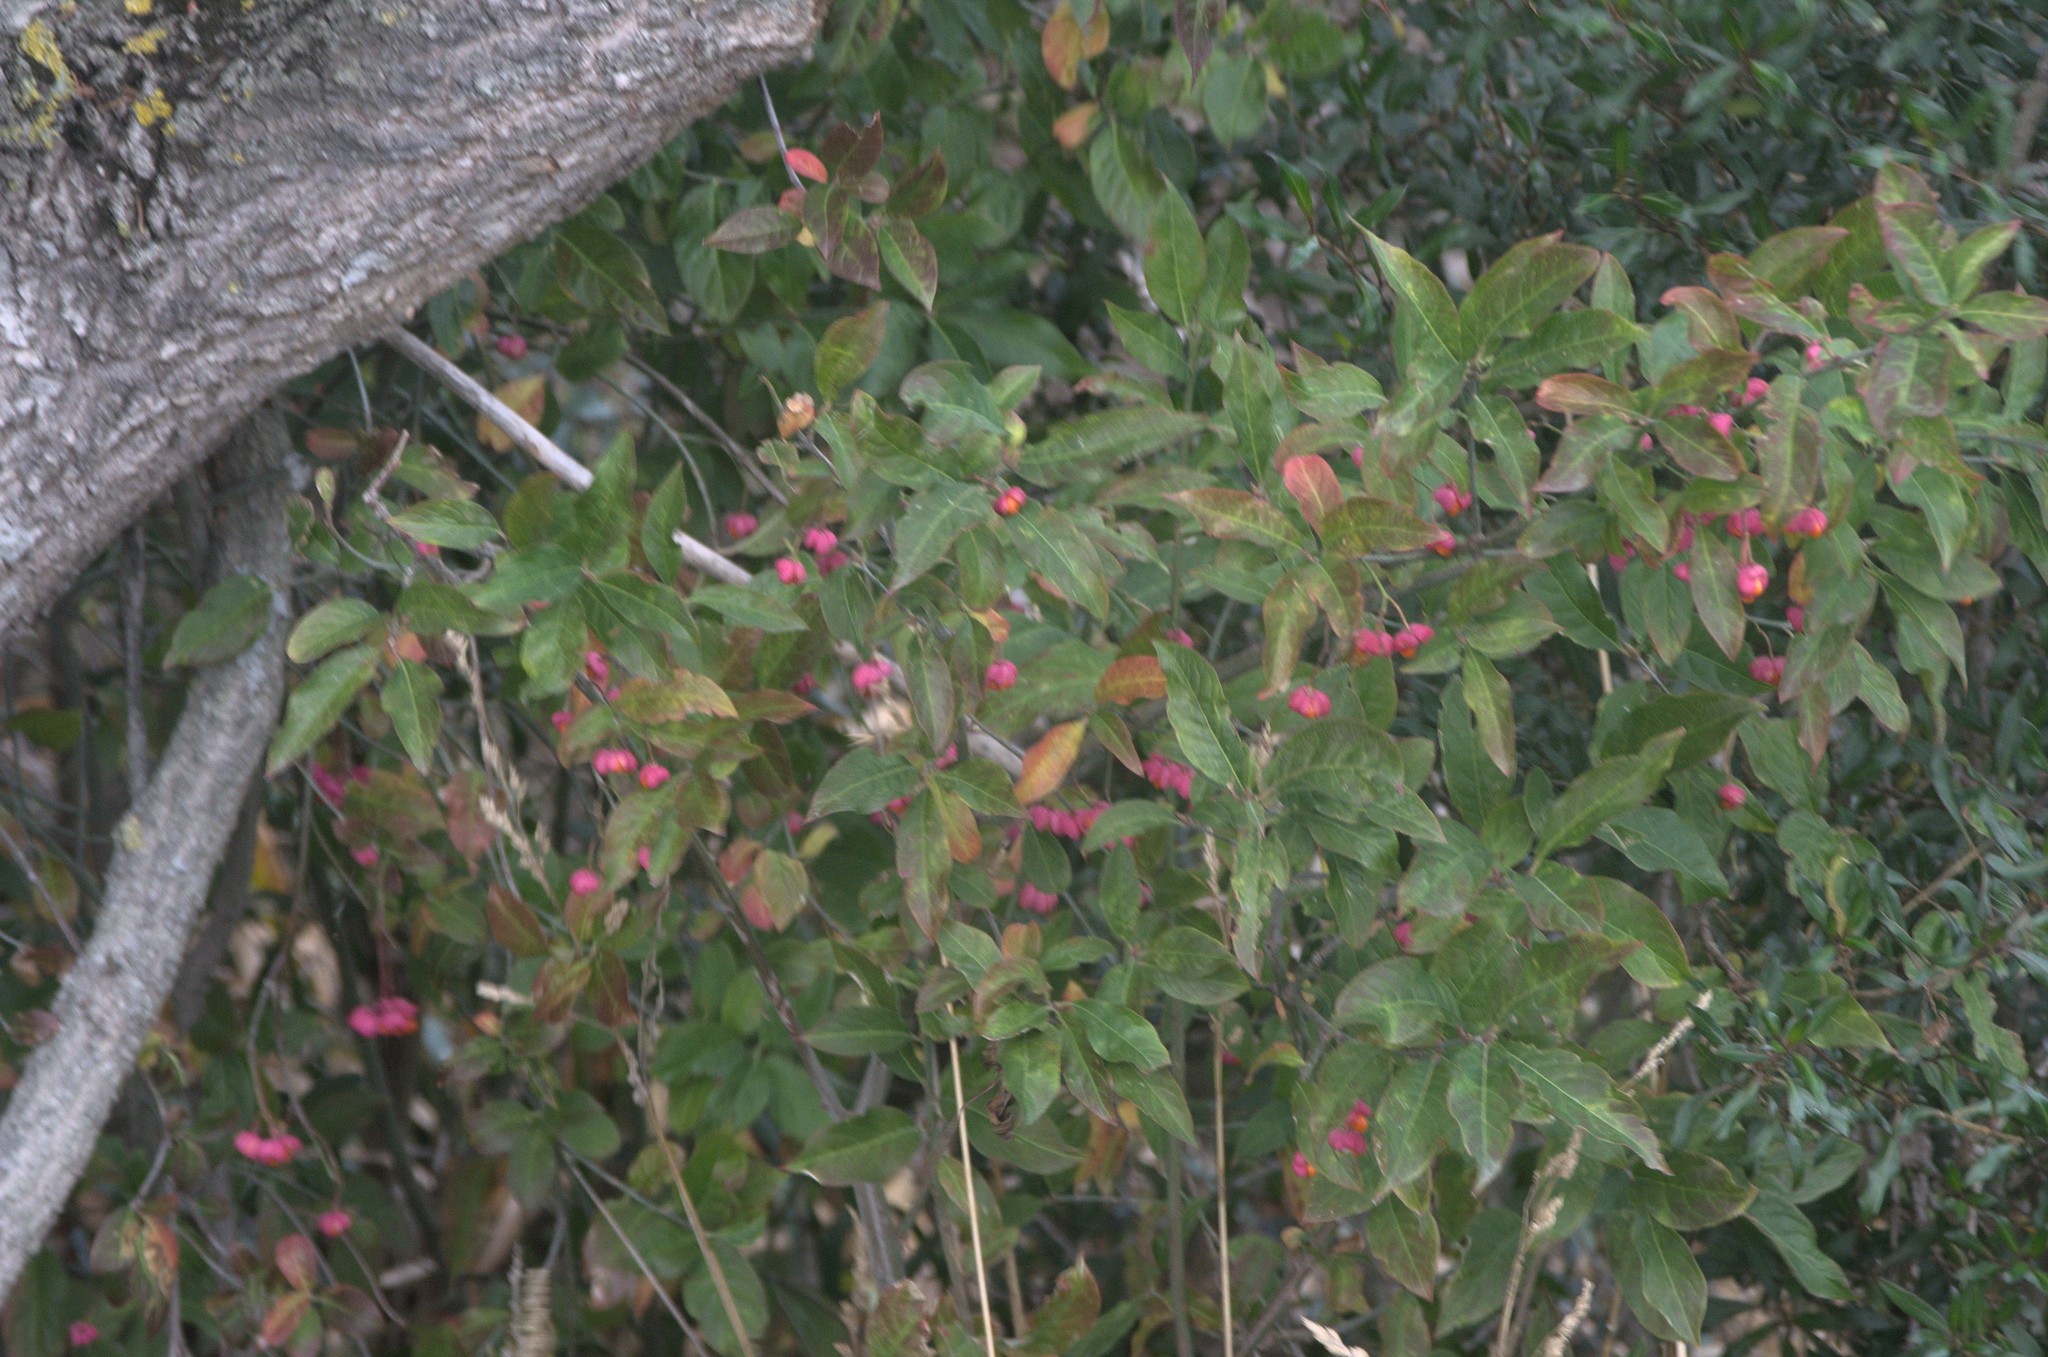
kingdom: Plantae
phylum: Tracheophyta
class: Magnoliopsida
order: Celastrales
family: Celastraceae
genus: Euonymus
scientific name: Euonymus europaeus
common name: Spindle
